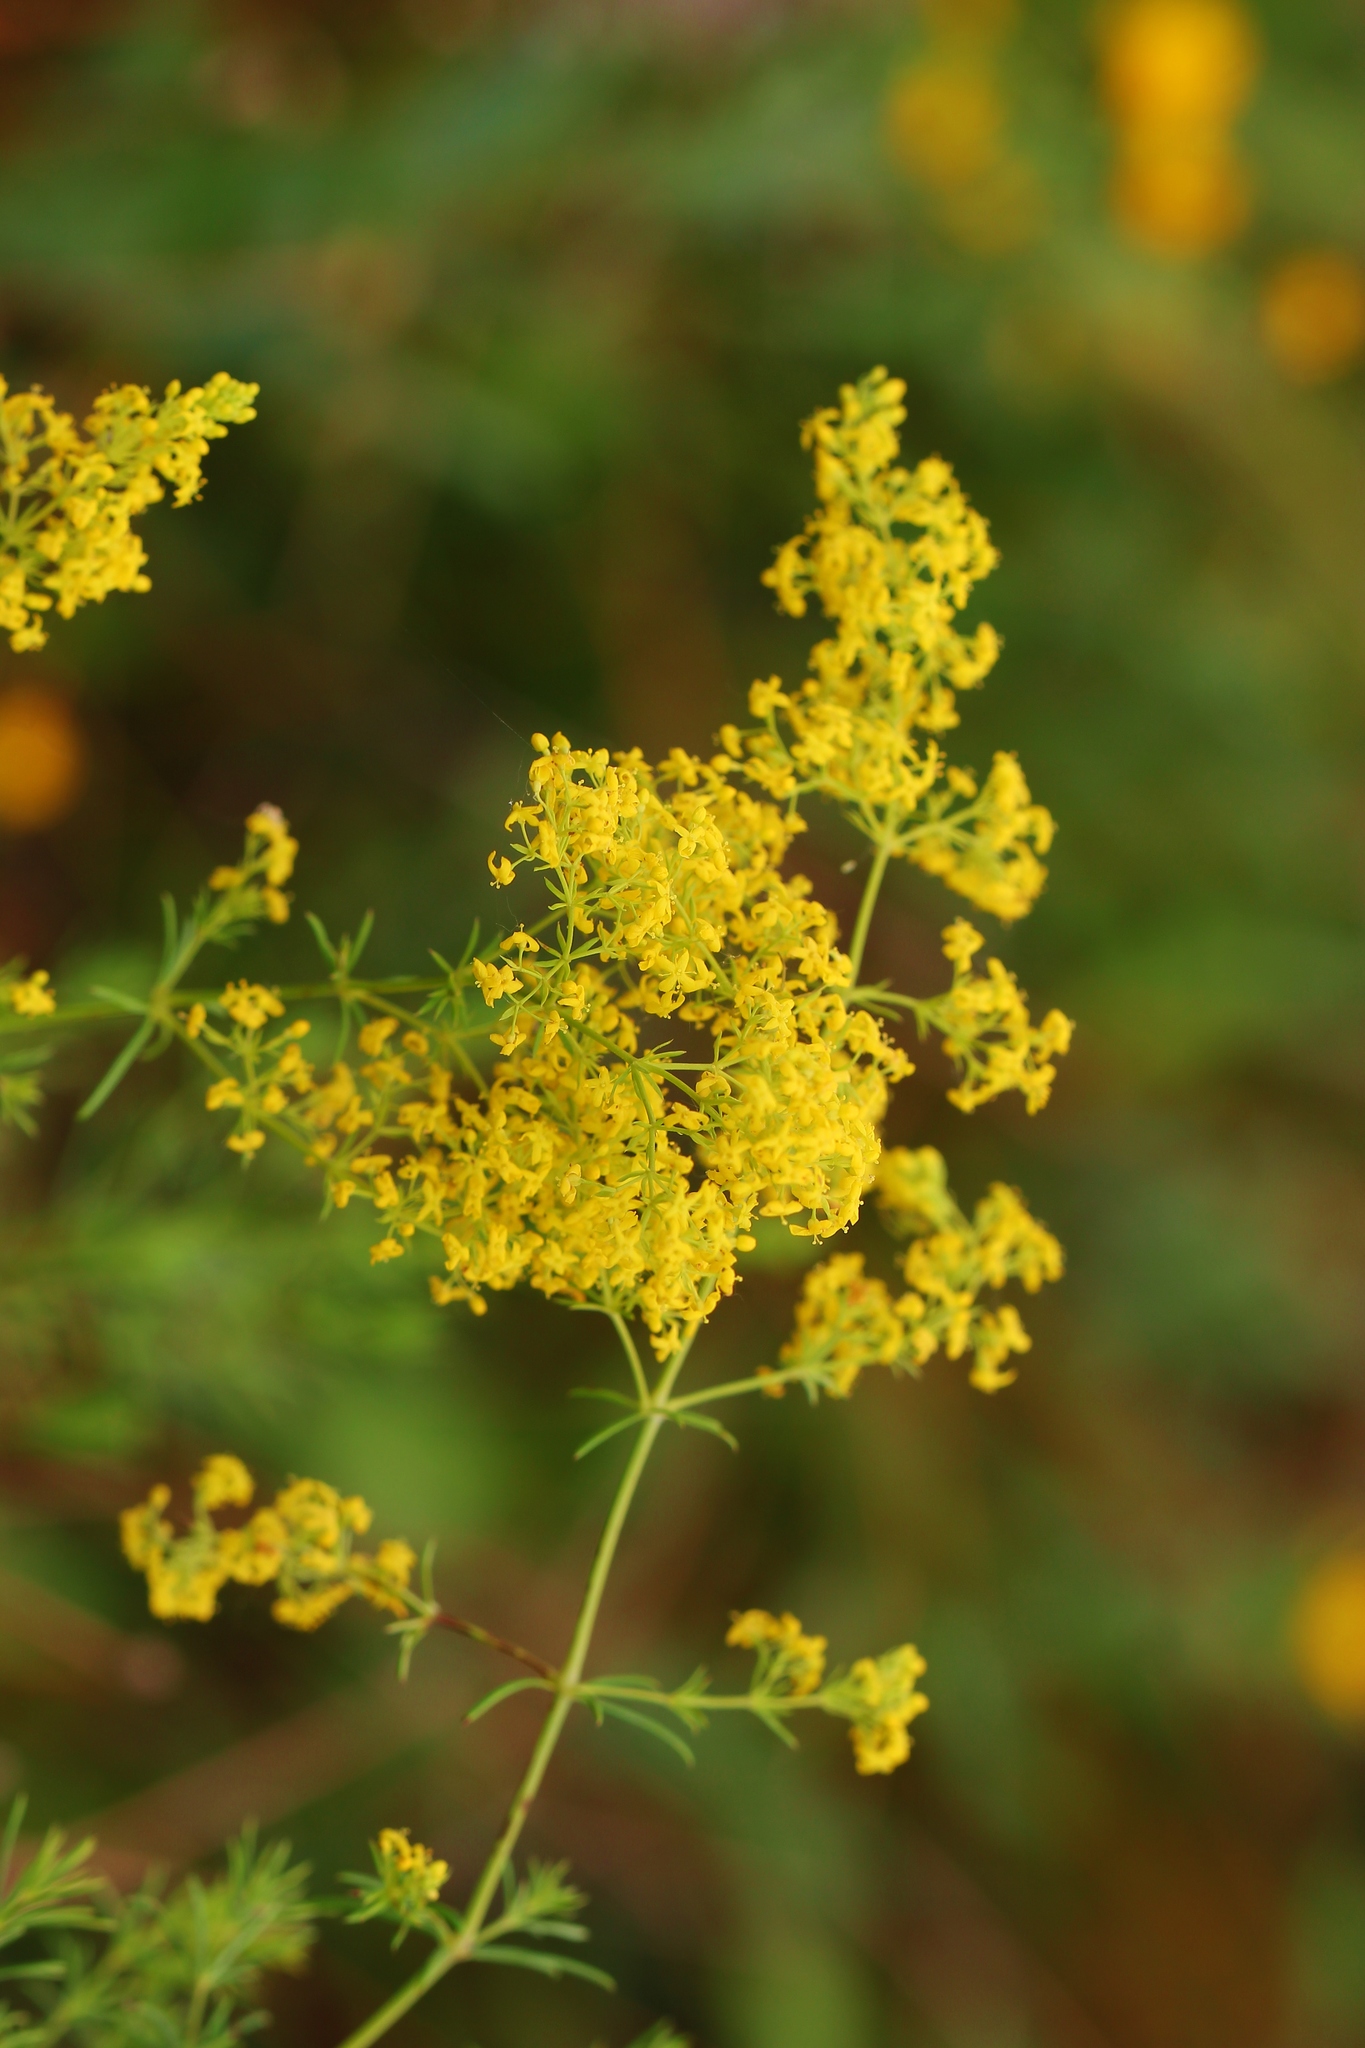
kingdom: Plantae
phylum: Tracheophyta
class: Magnoliopsida
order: Gentianales
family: Rubiaceae
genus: Galium
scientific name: Galium verum
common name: Lady's bedstraw
